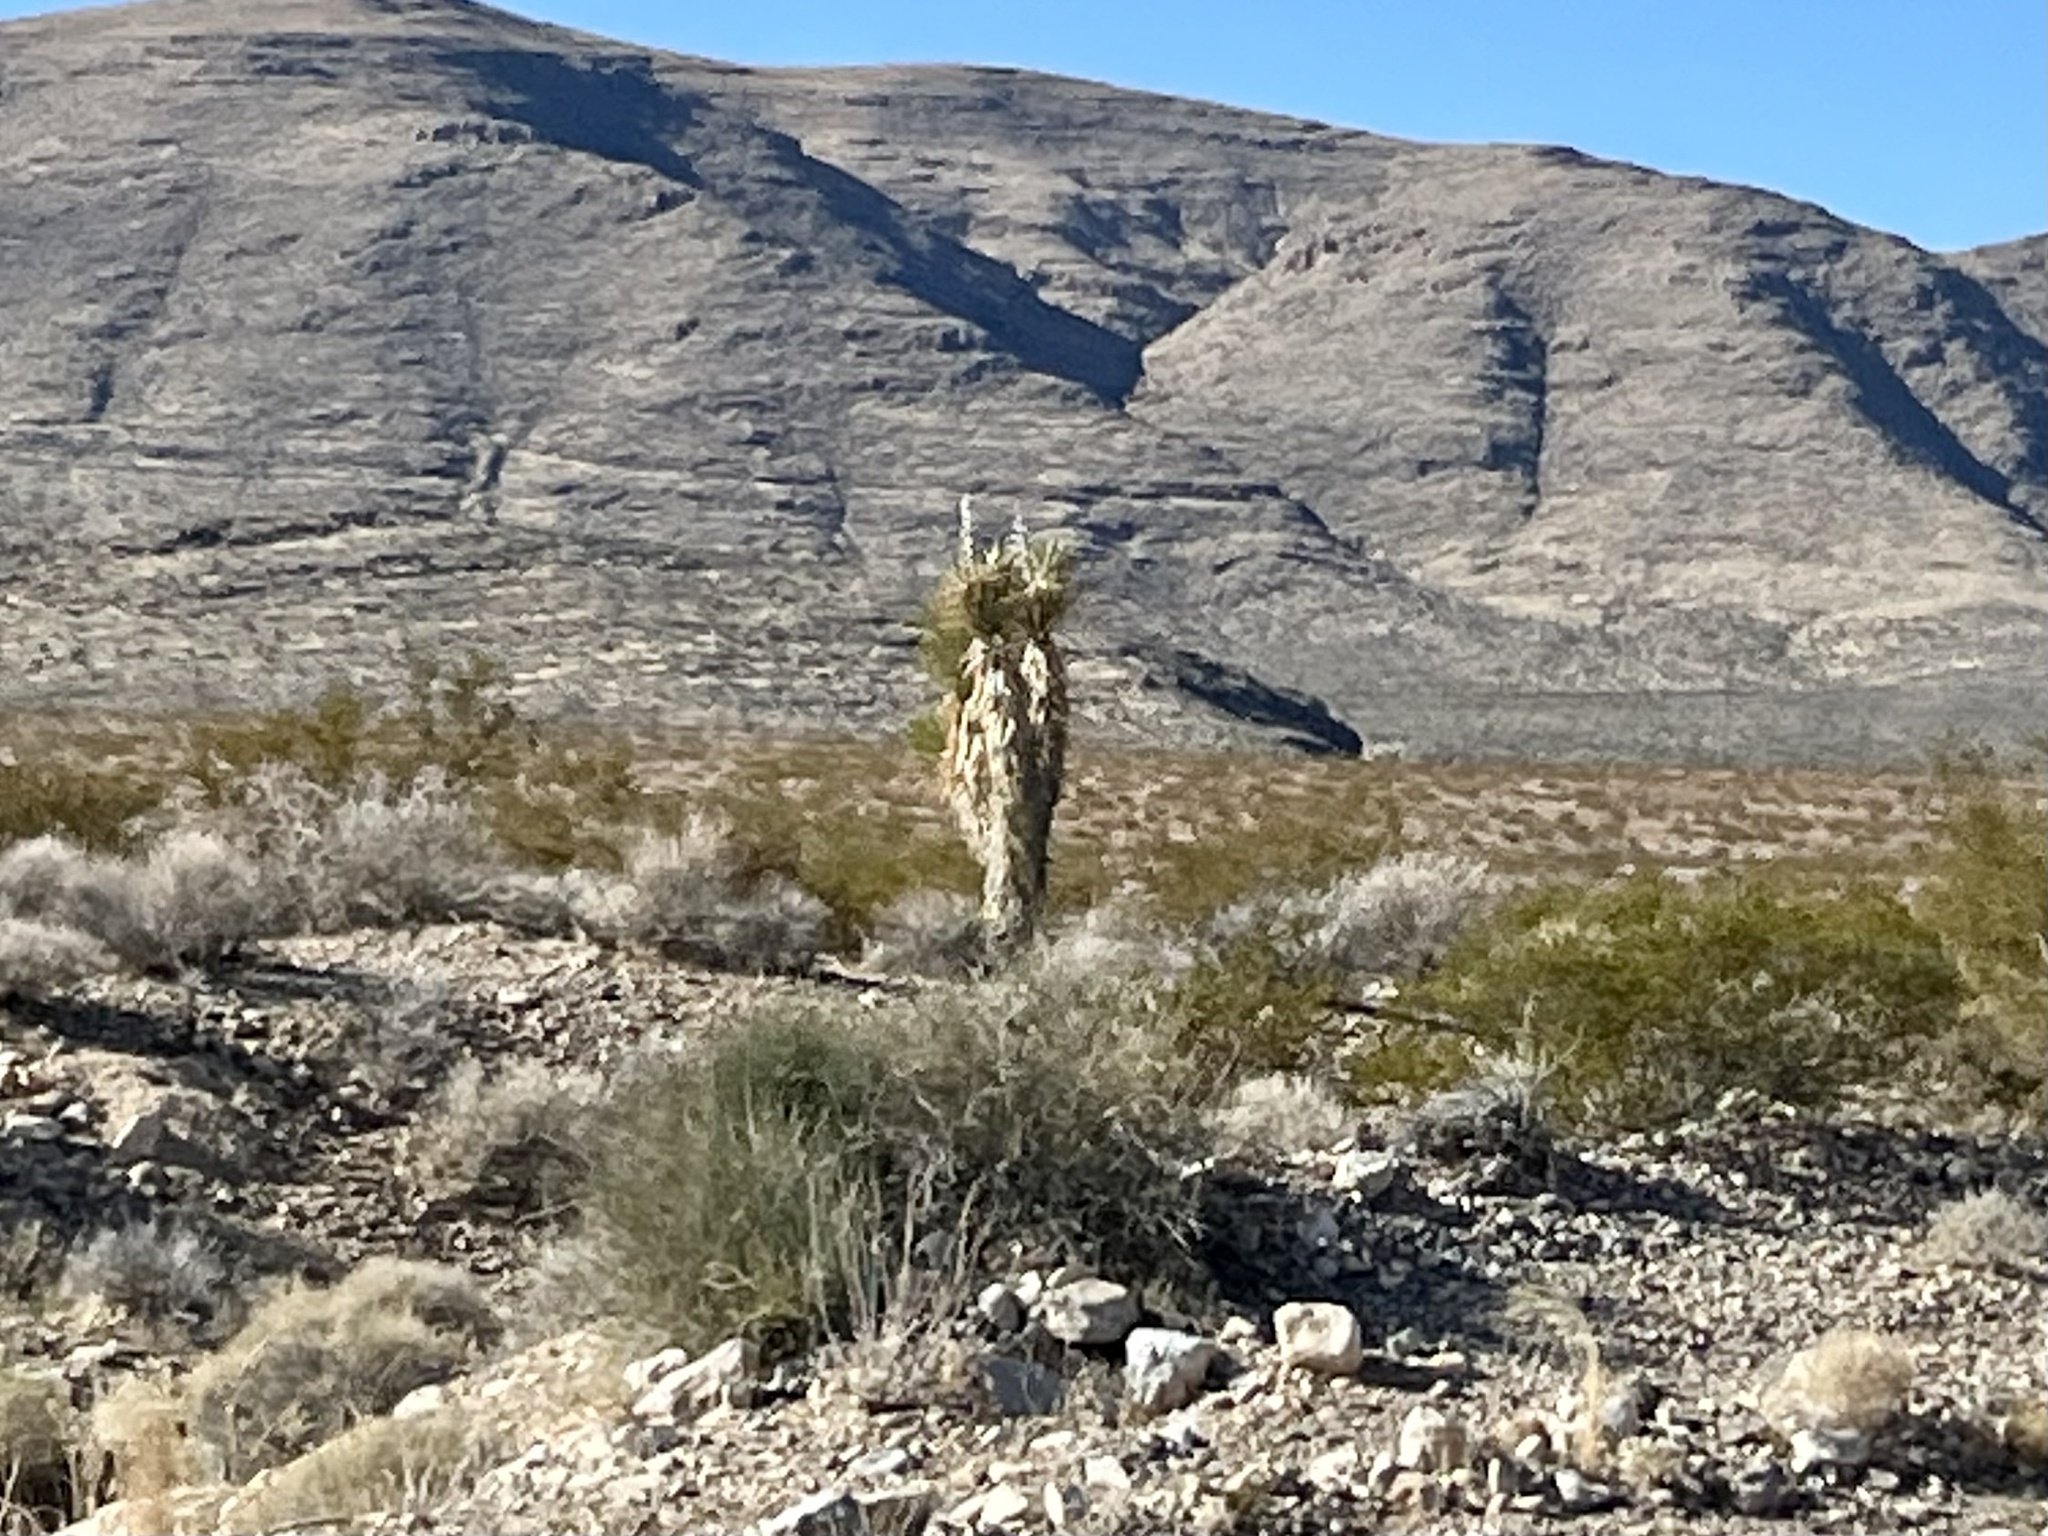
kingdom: Plantae
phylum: Tracheophyta
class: Liliopsida
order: Asparagales
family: Asparagaceae
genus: Yucca
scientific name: Yucca brevifolia
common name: Joshua tree
